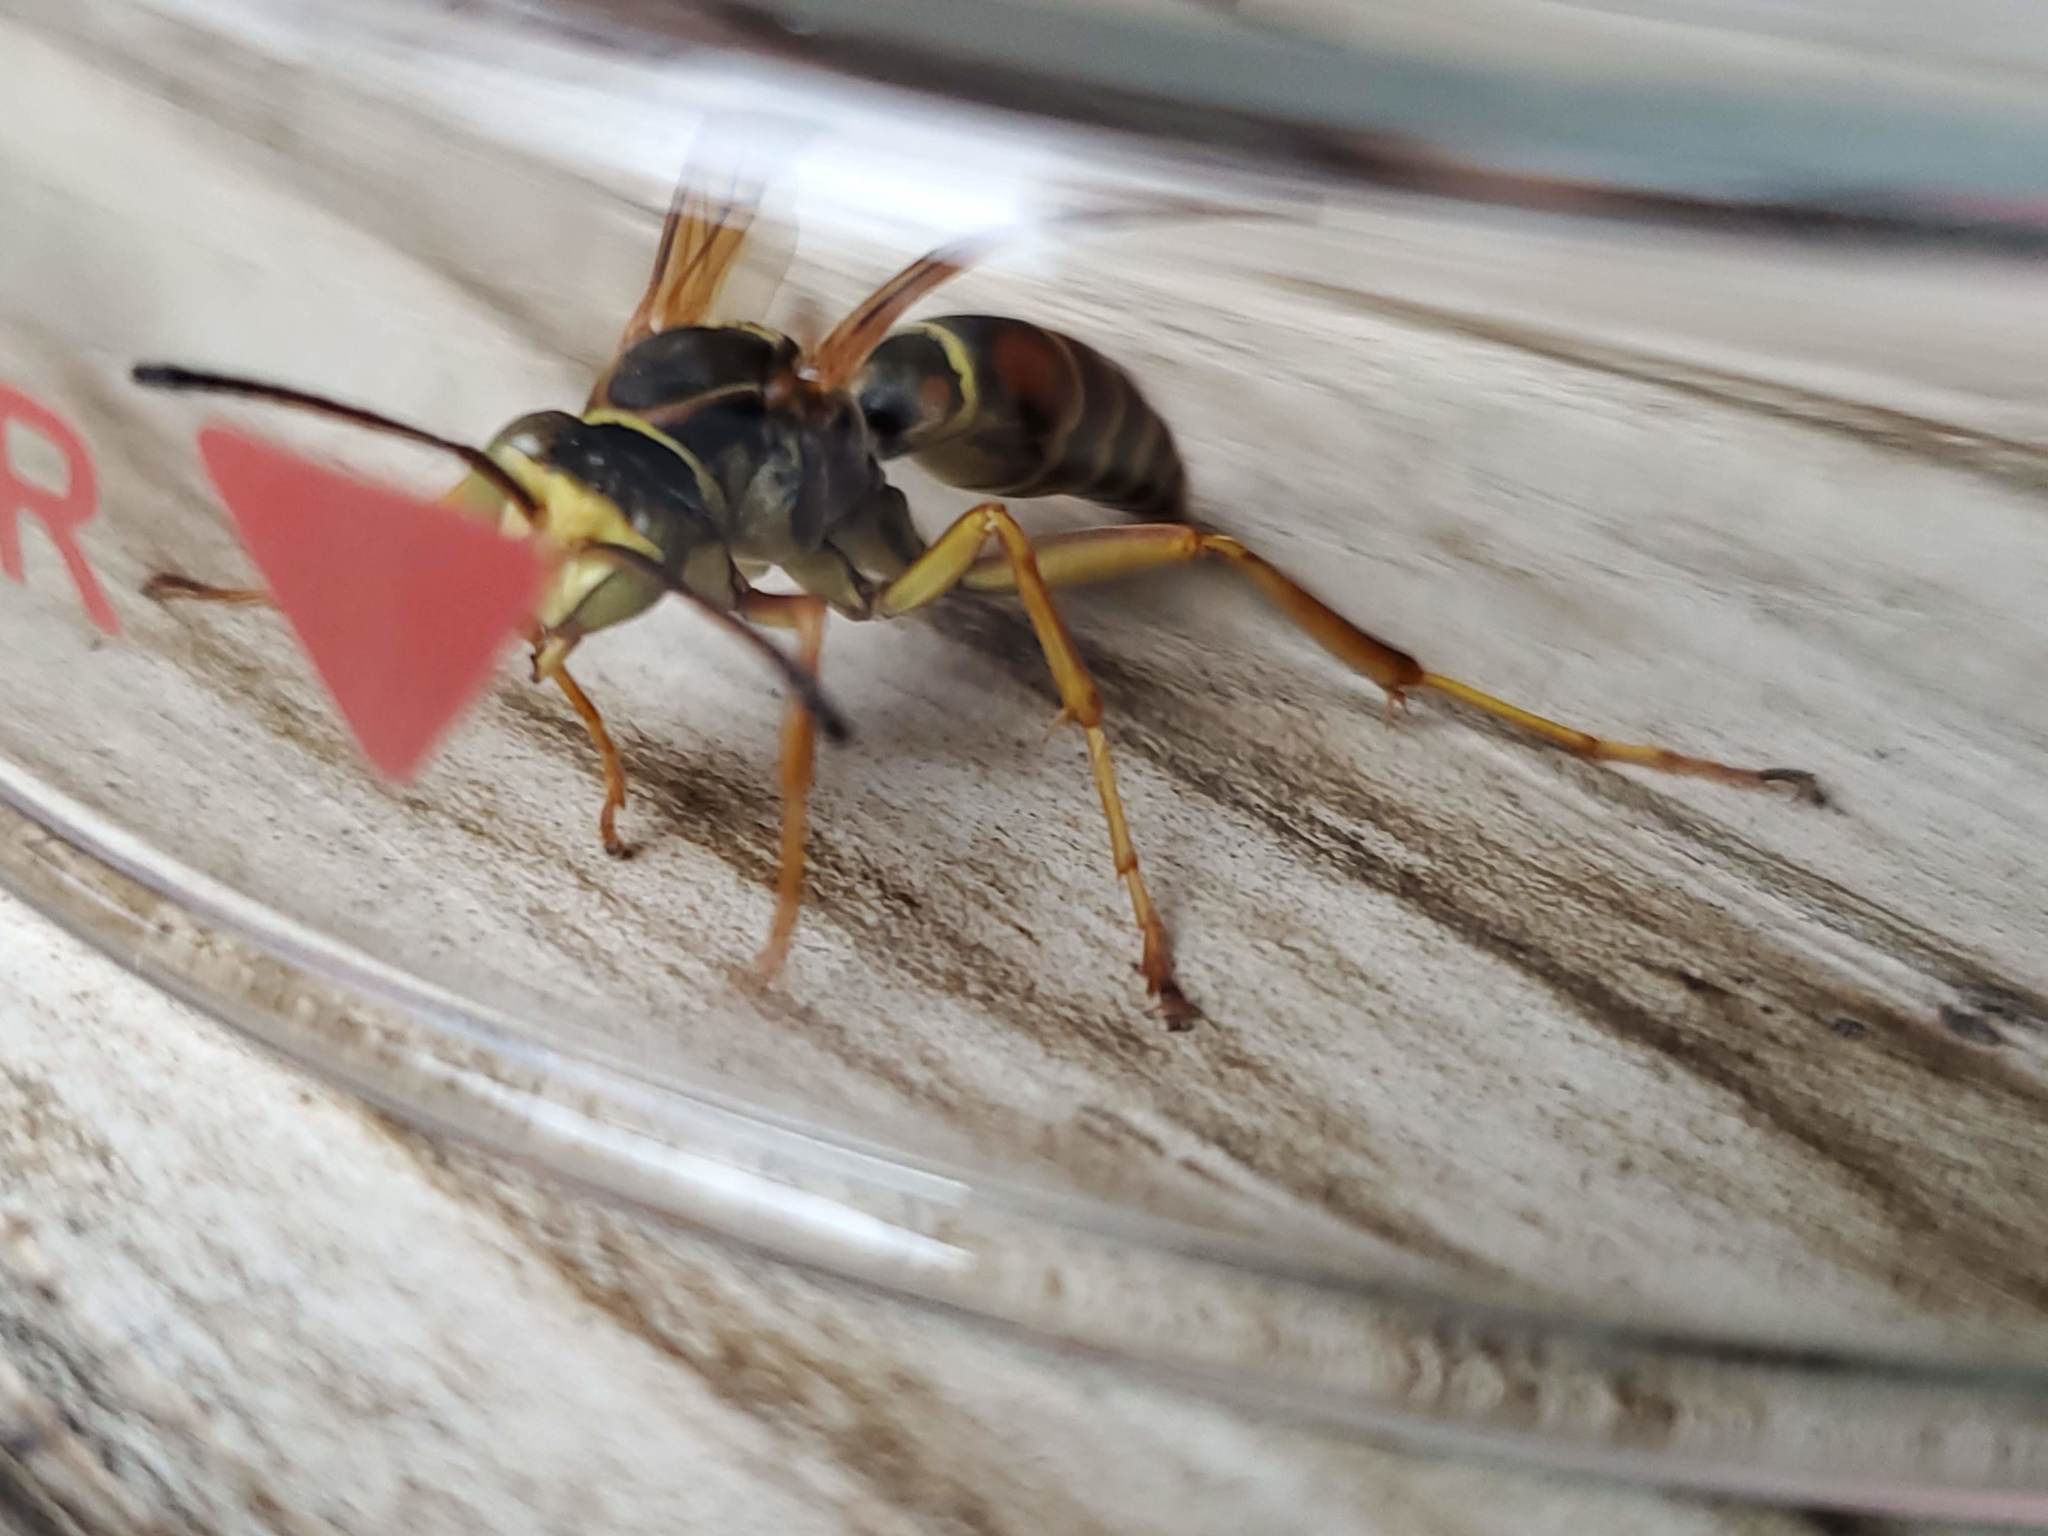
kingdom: Animalia
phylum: Arthropoda
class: Insecta
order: Hymenoptera
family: Eumenidae
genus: Polistes
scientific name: Polistes fuscatus
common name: Dark paper wasp
